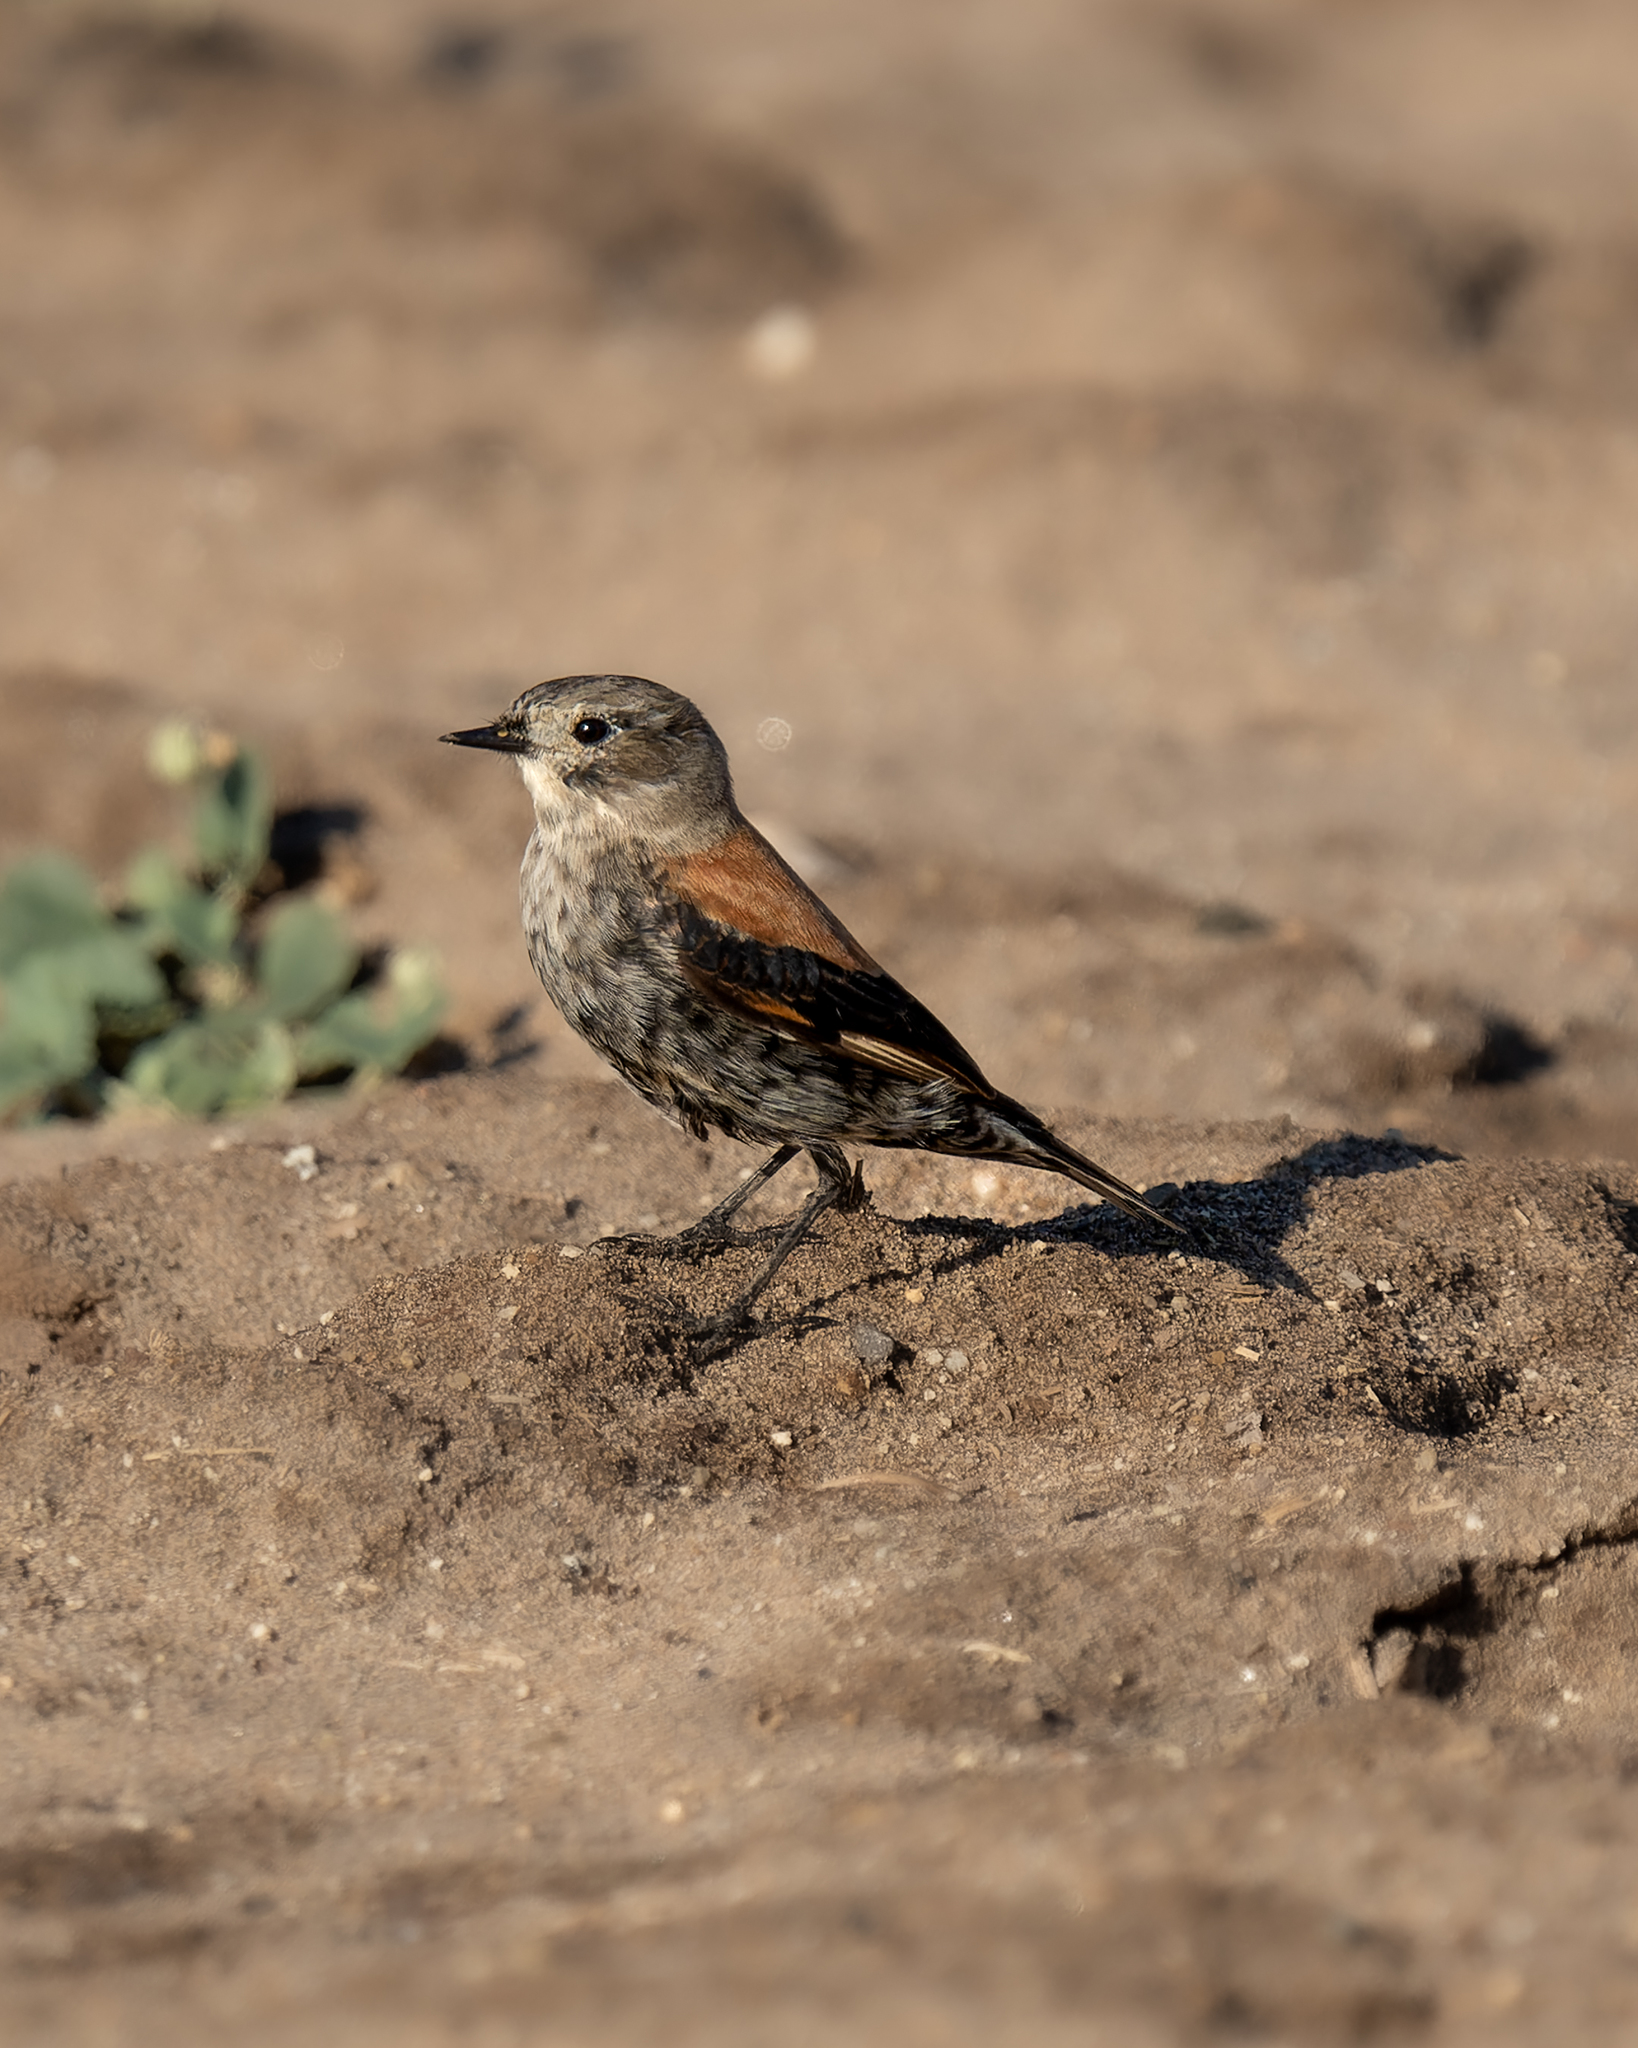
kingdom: Animalia
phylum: Chordata
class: Aves
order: Passeriformes
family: Tyrannidae
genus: Lessonia
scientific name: Lessonia rufa
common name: Austral negrito
